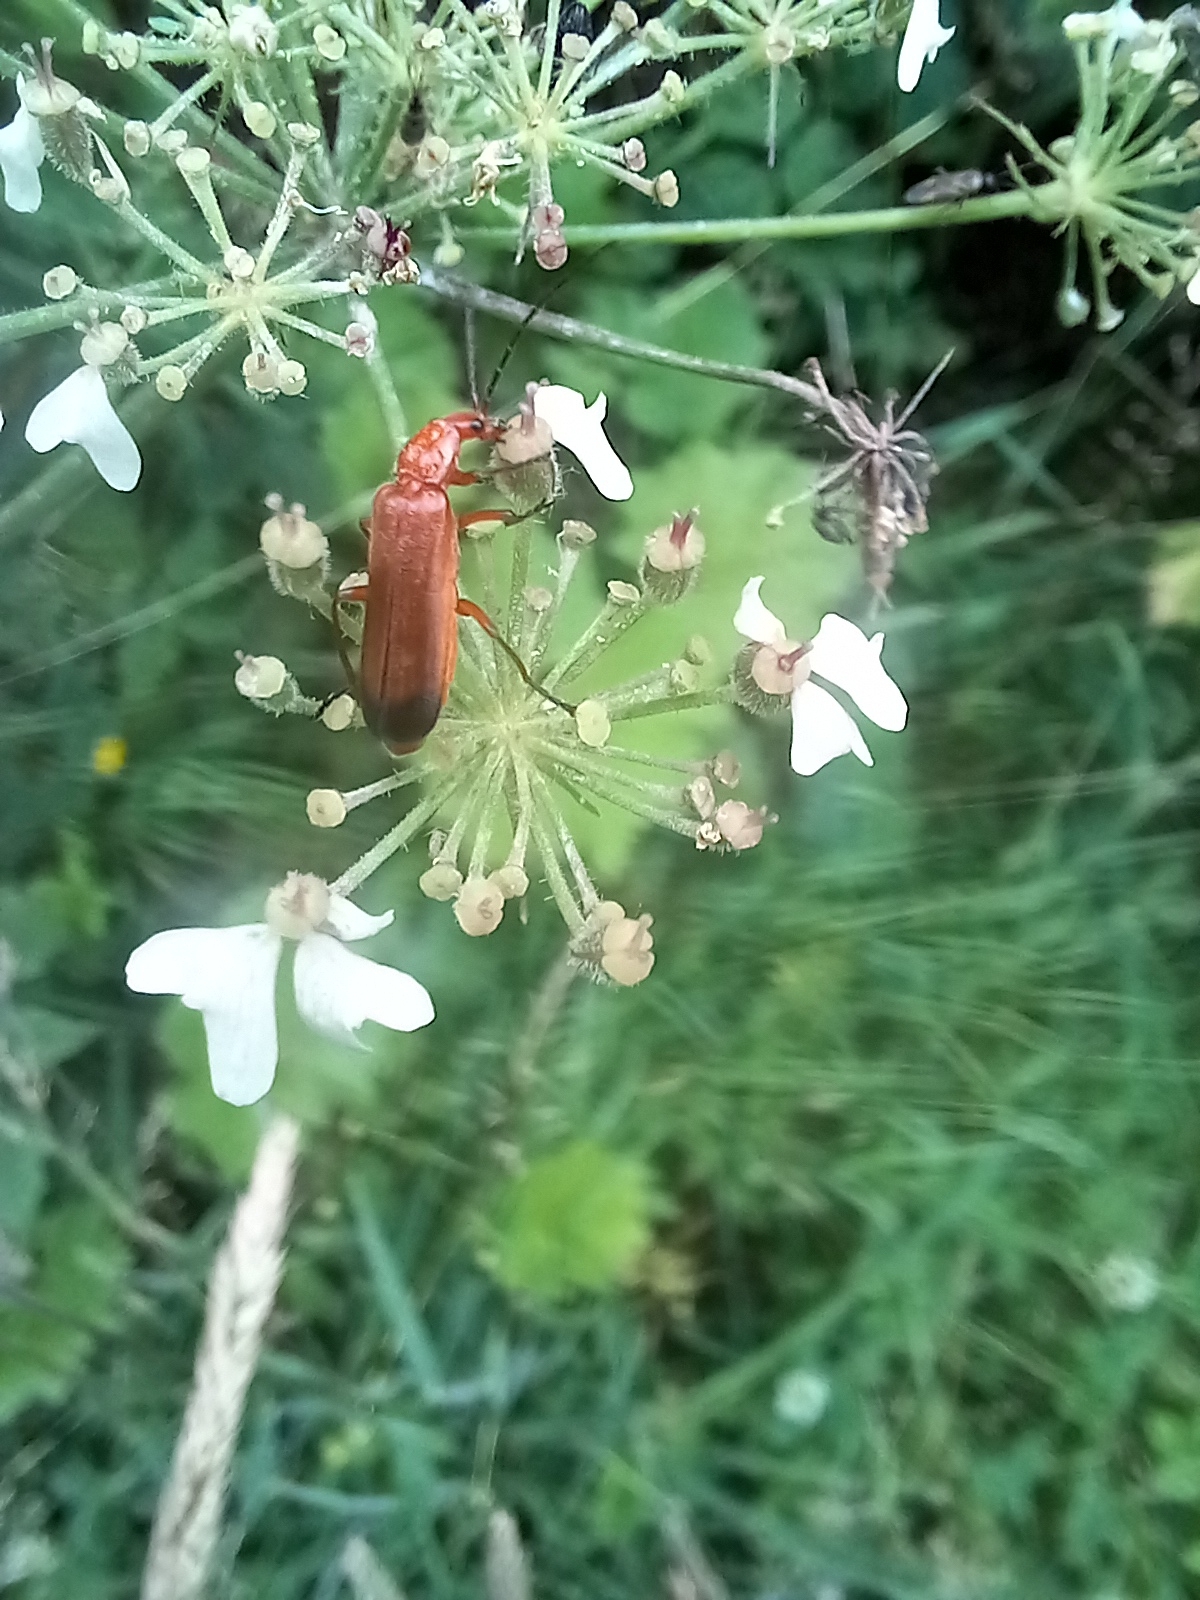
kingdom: Animalia
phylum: Arthropoda
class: Insecta
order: Coleoptera
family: Cantharidae
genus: Rhagonycha
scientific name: Rhagonycha fulva
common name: Common red soldier beetle
